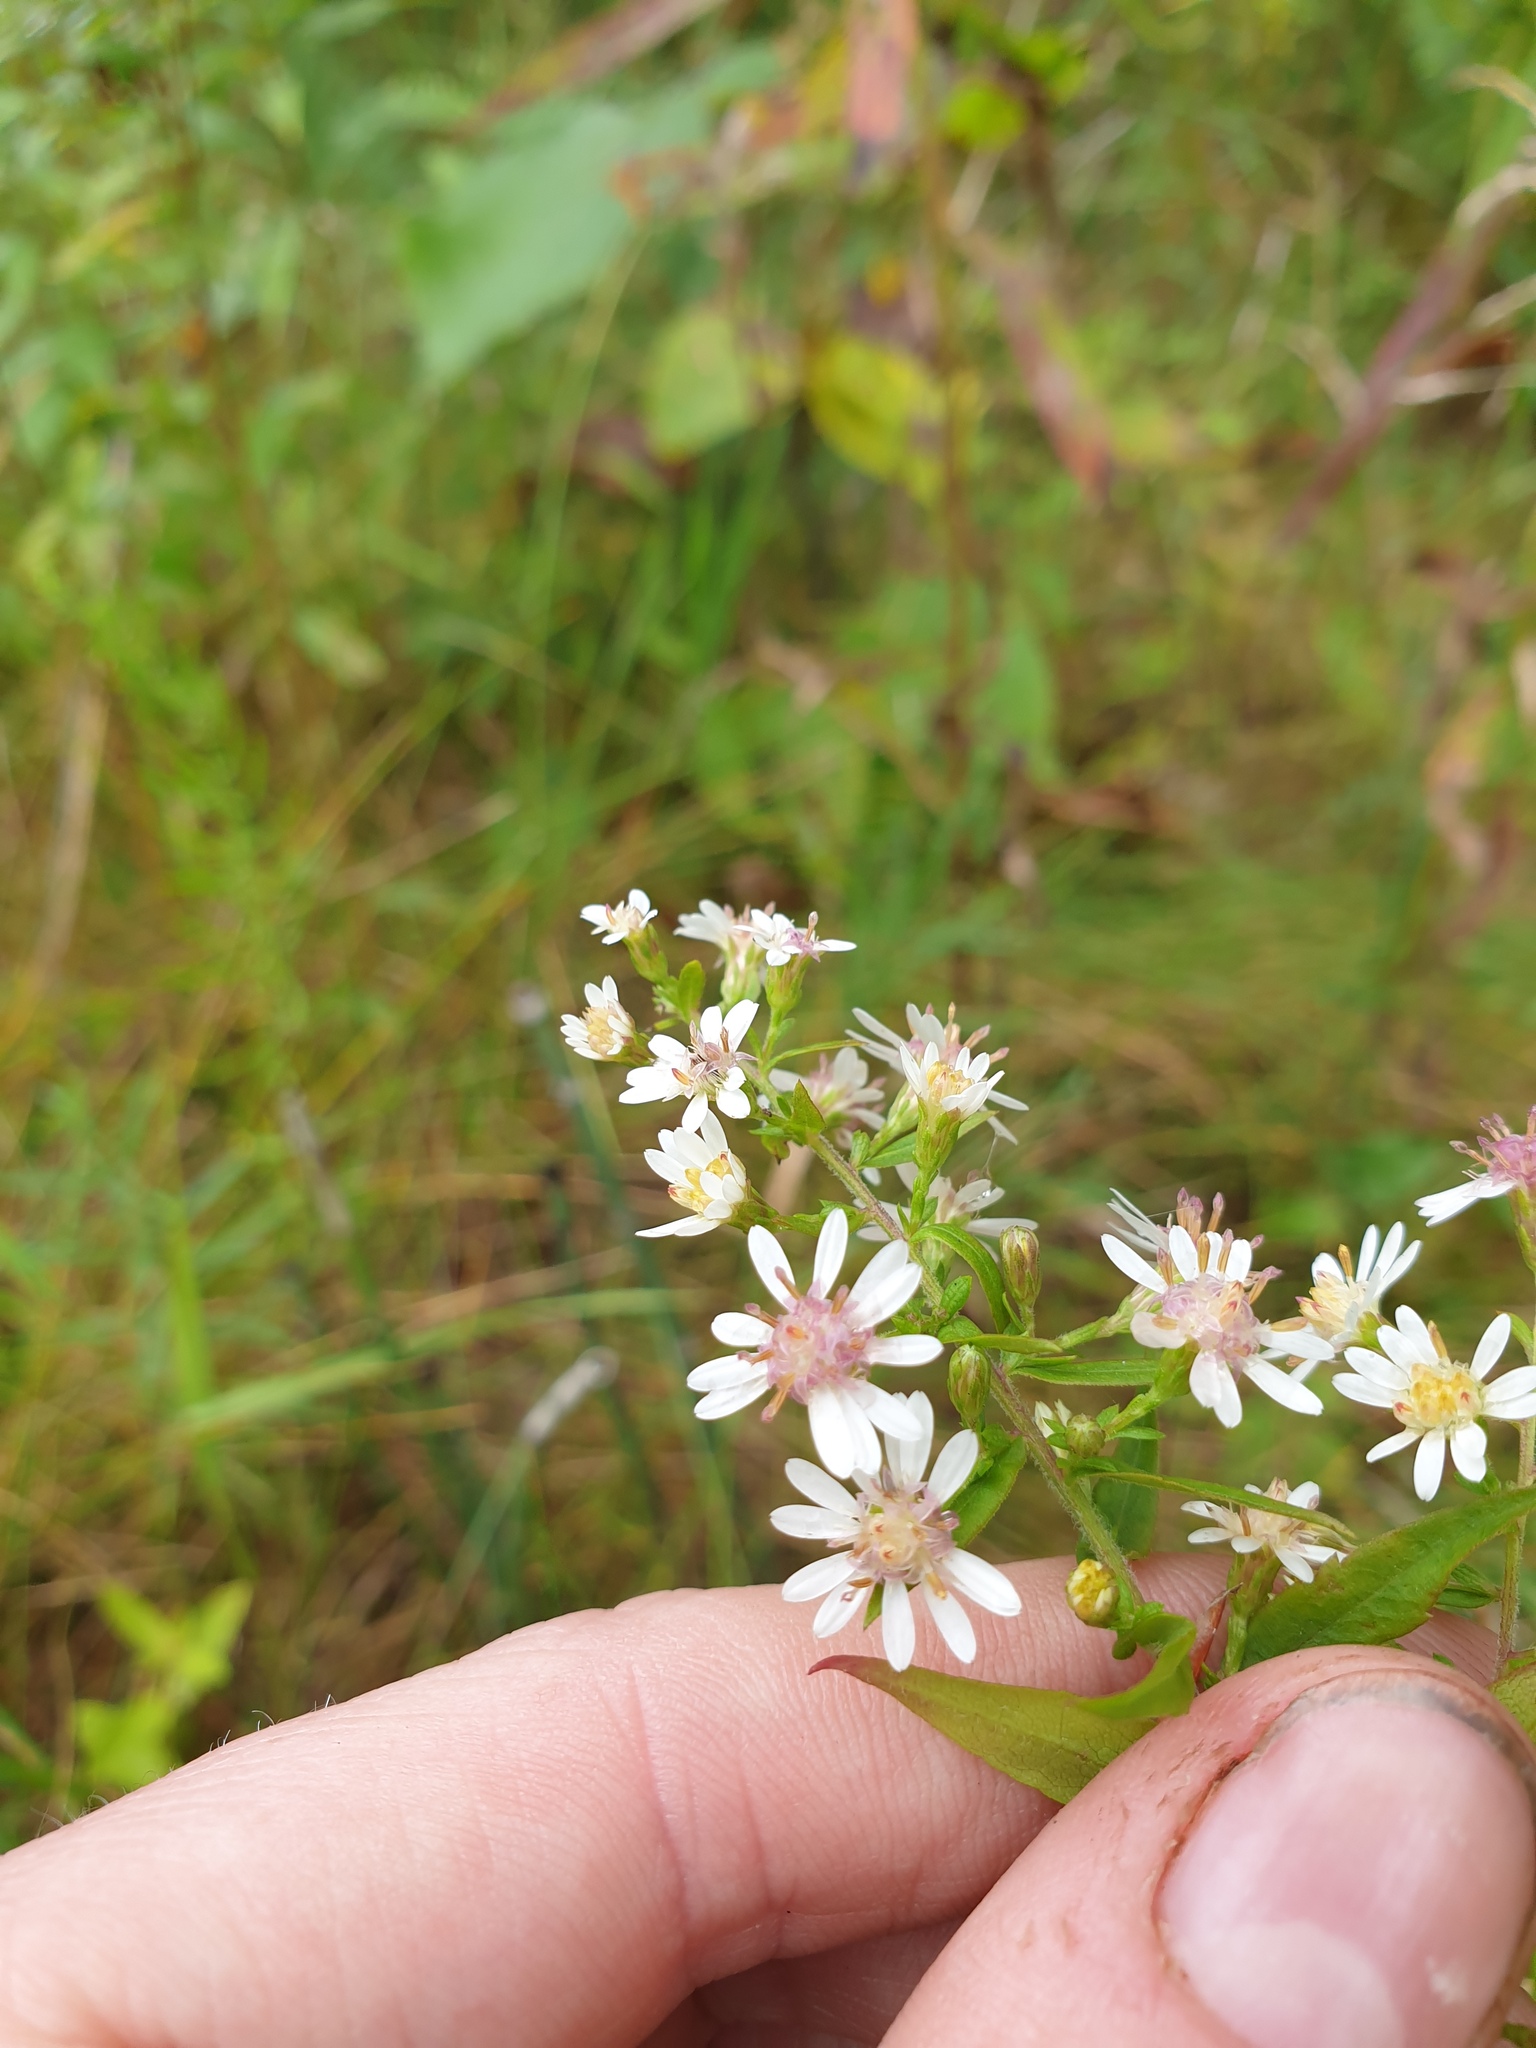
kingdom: Plantae
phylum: Tracheophyta
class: Magnoliopsida
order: Asterales
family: Asteraceae
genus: Symphyotrichum
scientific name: Symphyotrichum lateriflorum
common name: Calico aster
